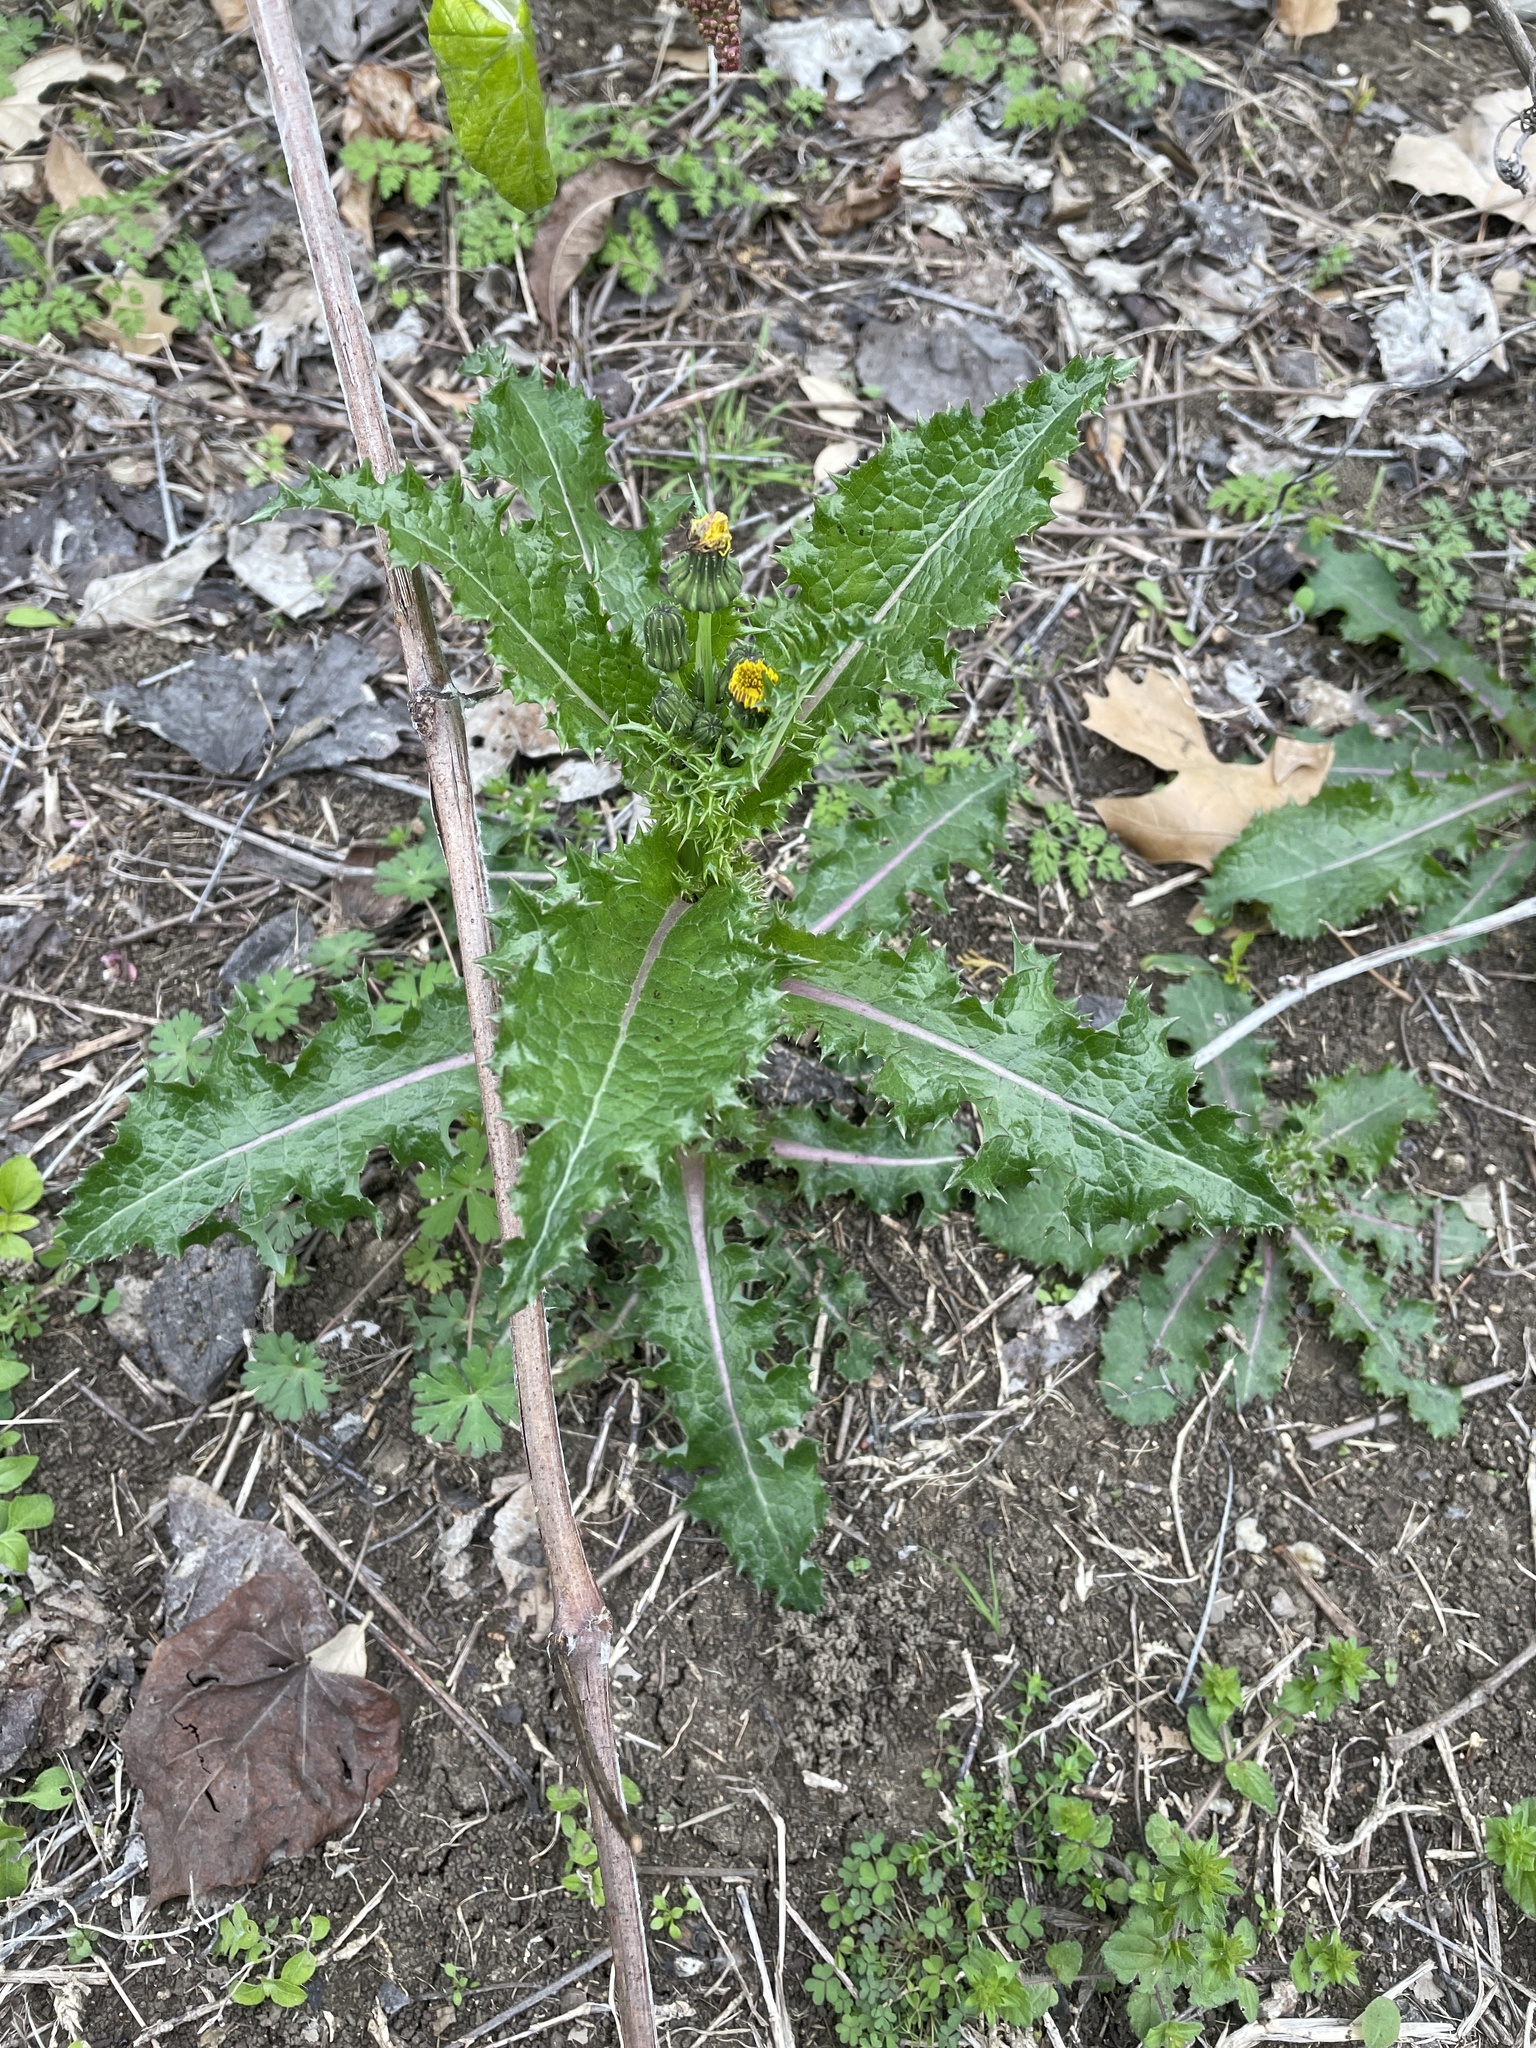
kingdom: Plantae
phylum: Tracheophyta
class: Magnoliopsida
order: Asterales
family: Asteraceae
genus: Sonchus
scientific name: Sonchus asper
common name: Prickly sow-thistle
